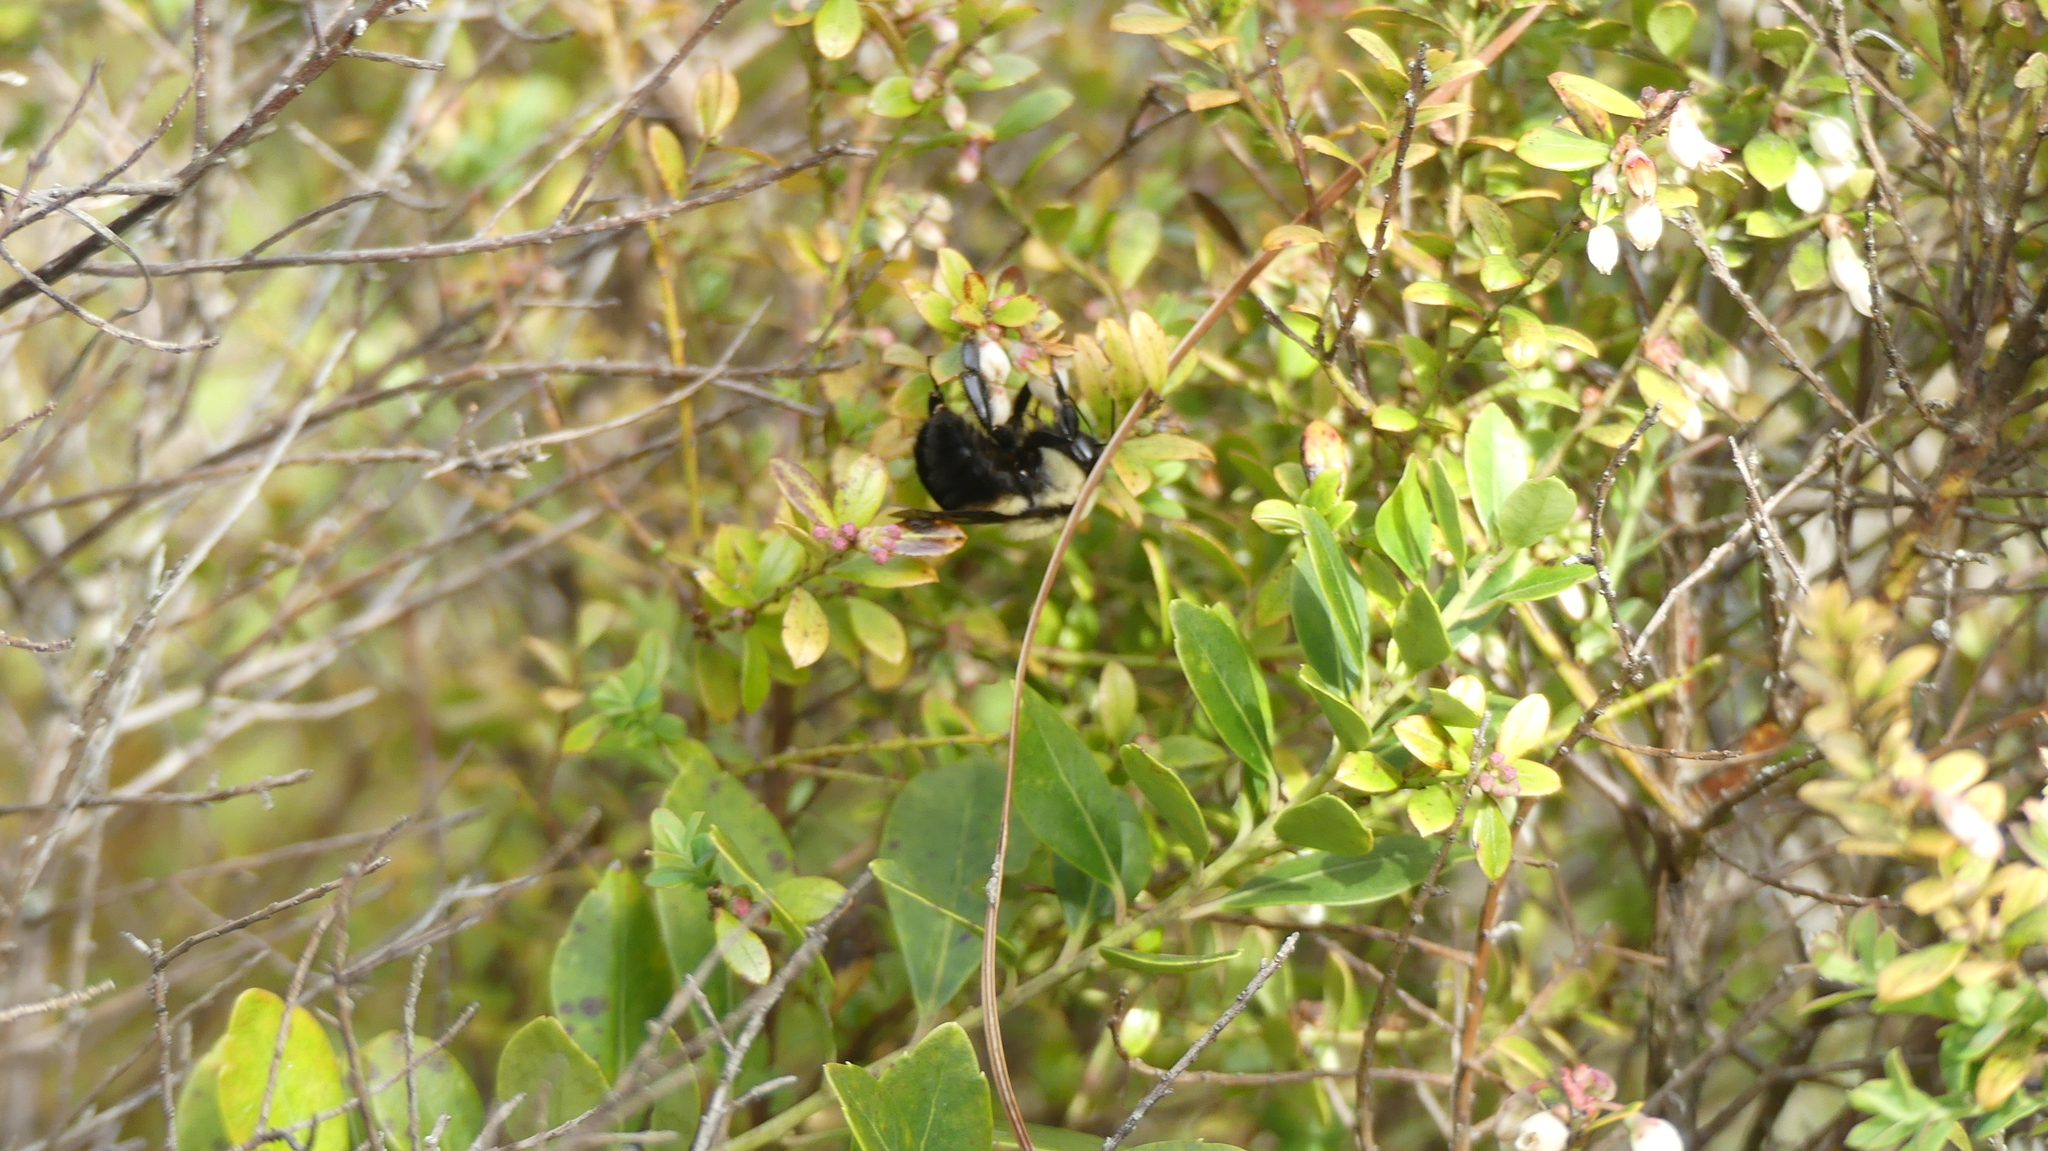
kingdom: Animalia
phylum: Arthropoda
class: Insecta
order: Hymenoptera
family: Apidae
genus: Bombus
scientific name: Bombus griseocollis
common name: Brown-belted bumble bee
